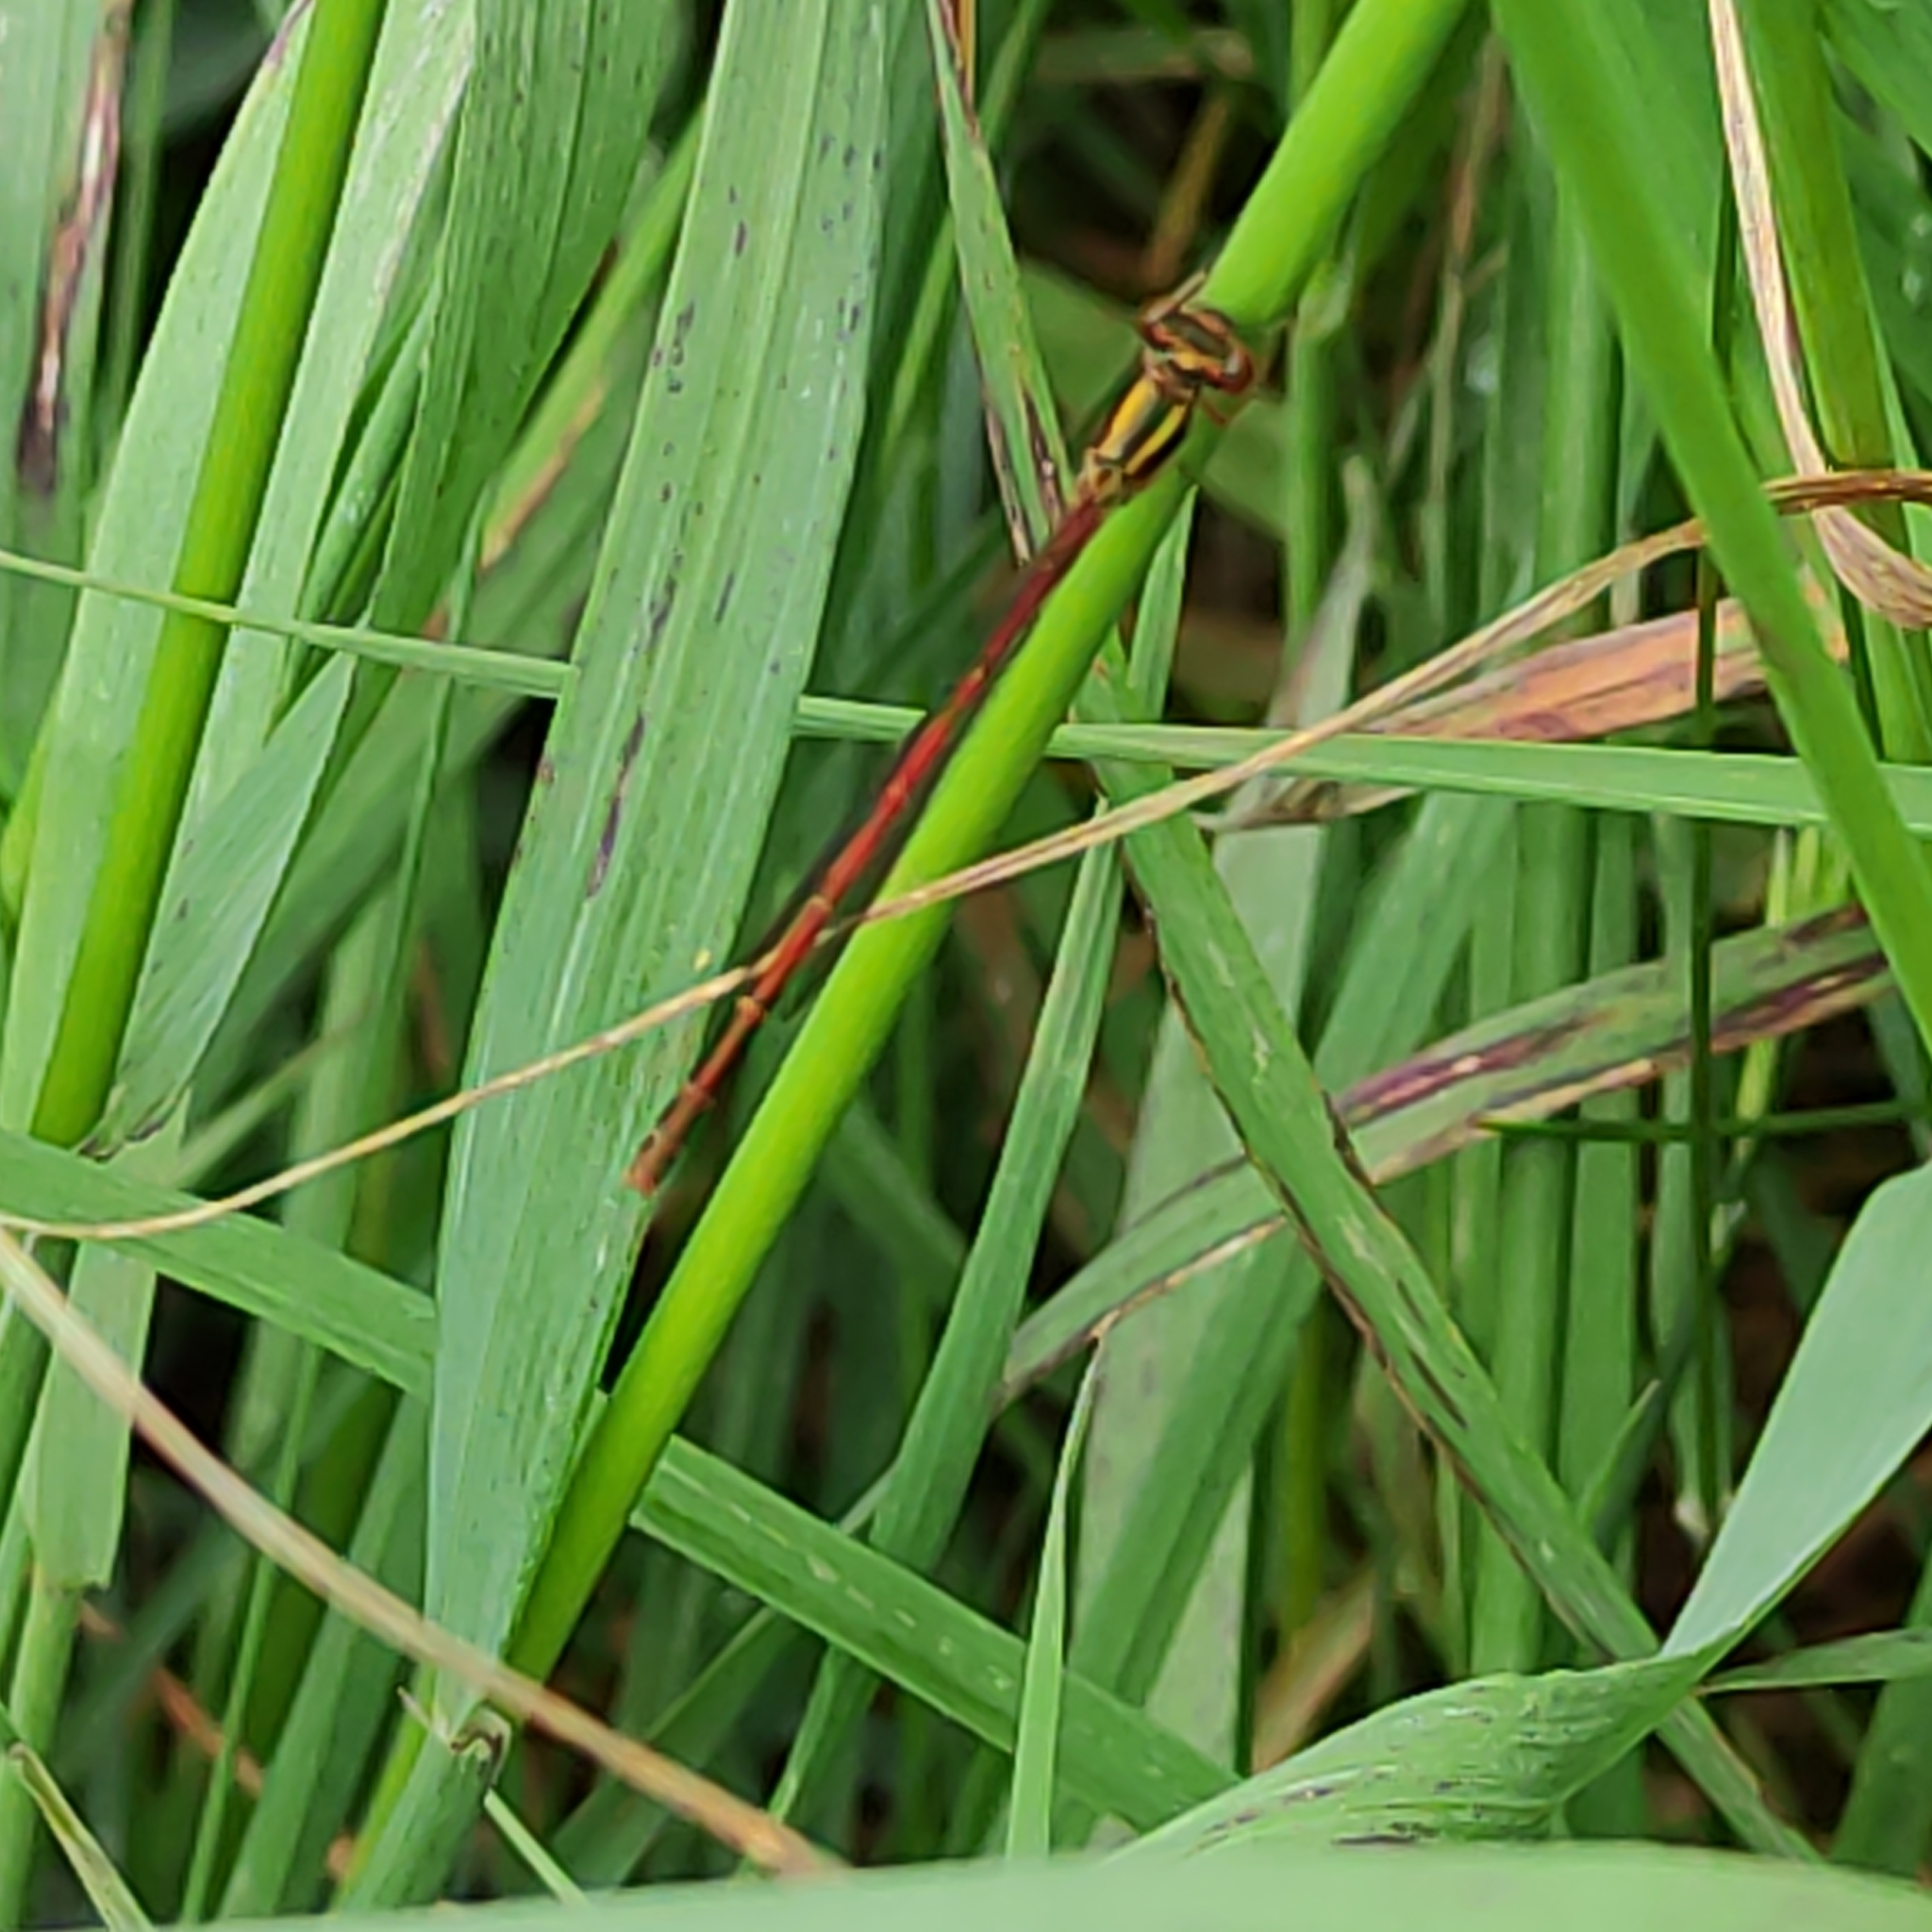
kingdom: Animalia
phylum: Arthropoda
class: Insecta
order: Odonata
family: Coenagrionidae
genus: Xanthocnemis
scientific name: Xanthocnemis zealandica
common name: Common redcoat damselfly
